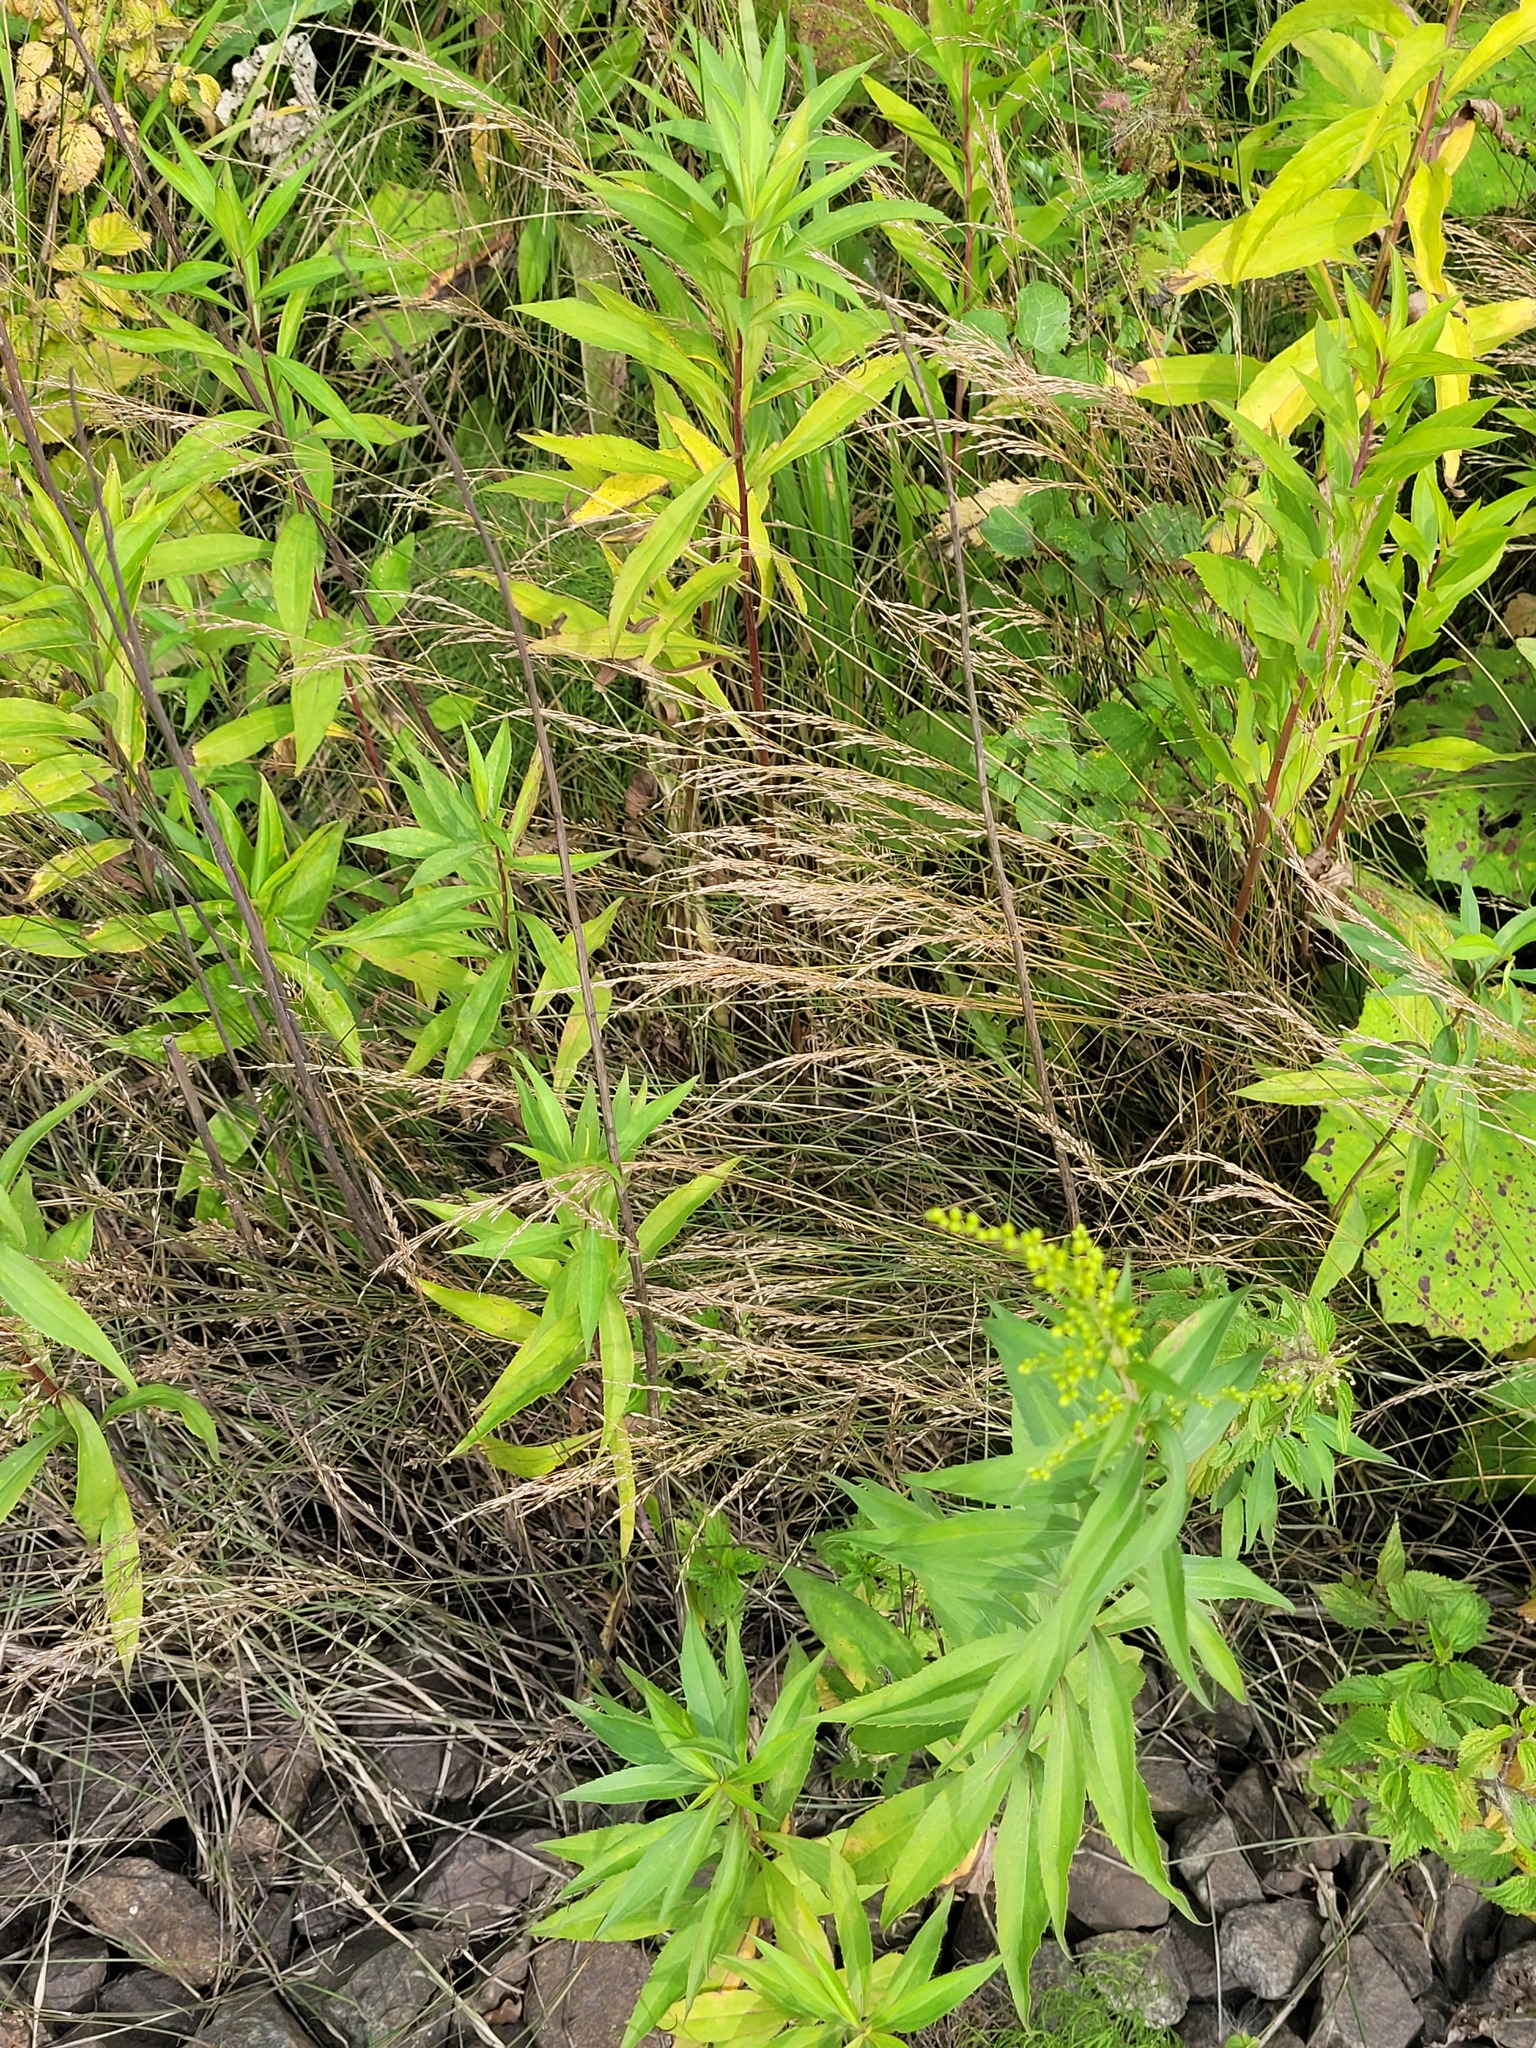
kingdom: Plantae
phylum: Tracheophyta
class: Liliopsida
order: Poales
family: Poaceae
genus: Poa
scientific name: Poa palustris
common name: Swamp meadow-grass
